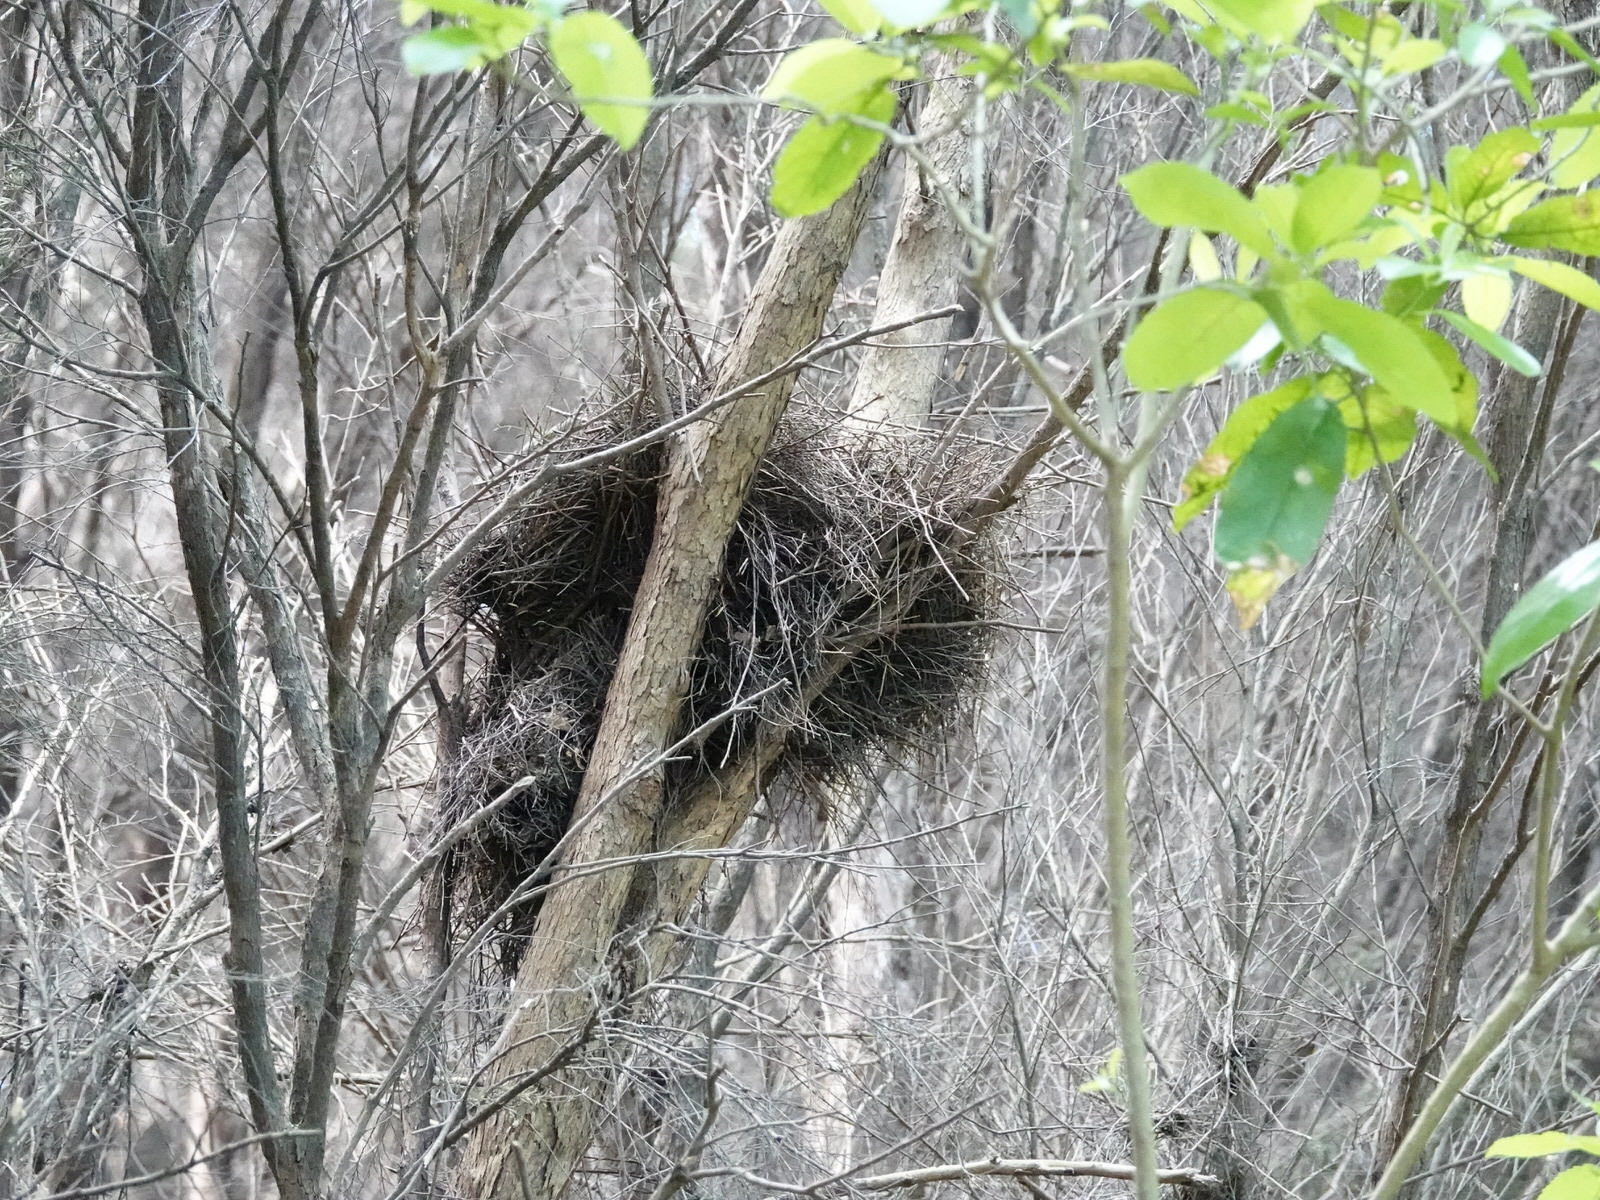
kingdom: Animalia
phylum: Chordata
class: Aves
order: Passeriformes
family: Meliphagidae
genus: Prosthemadera
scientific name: Prosthemadera novaeseelandiae
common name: Tui
